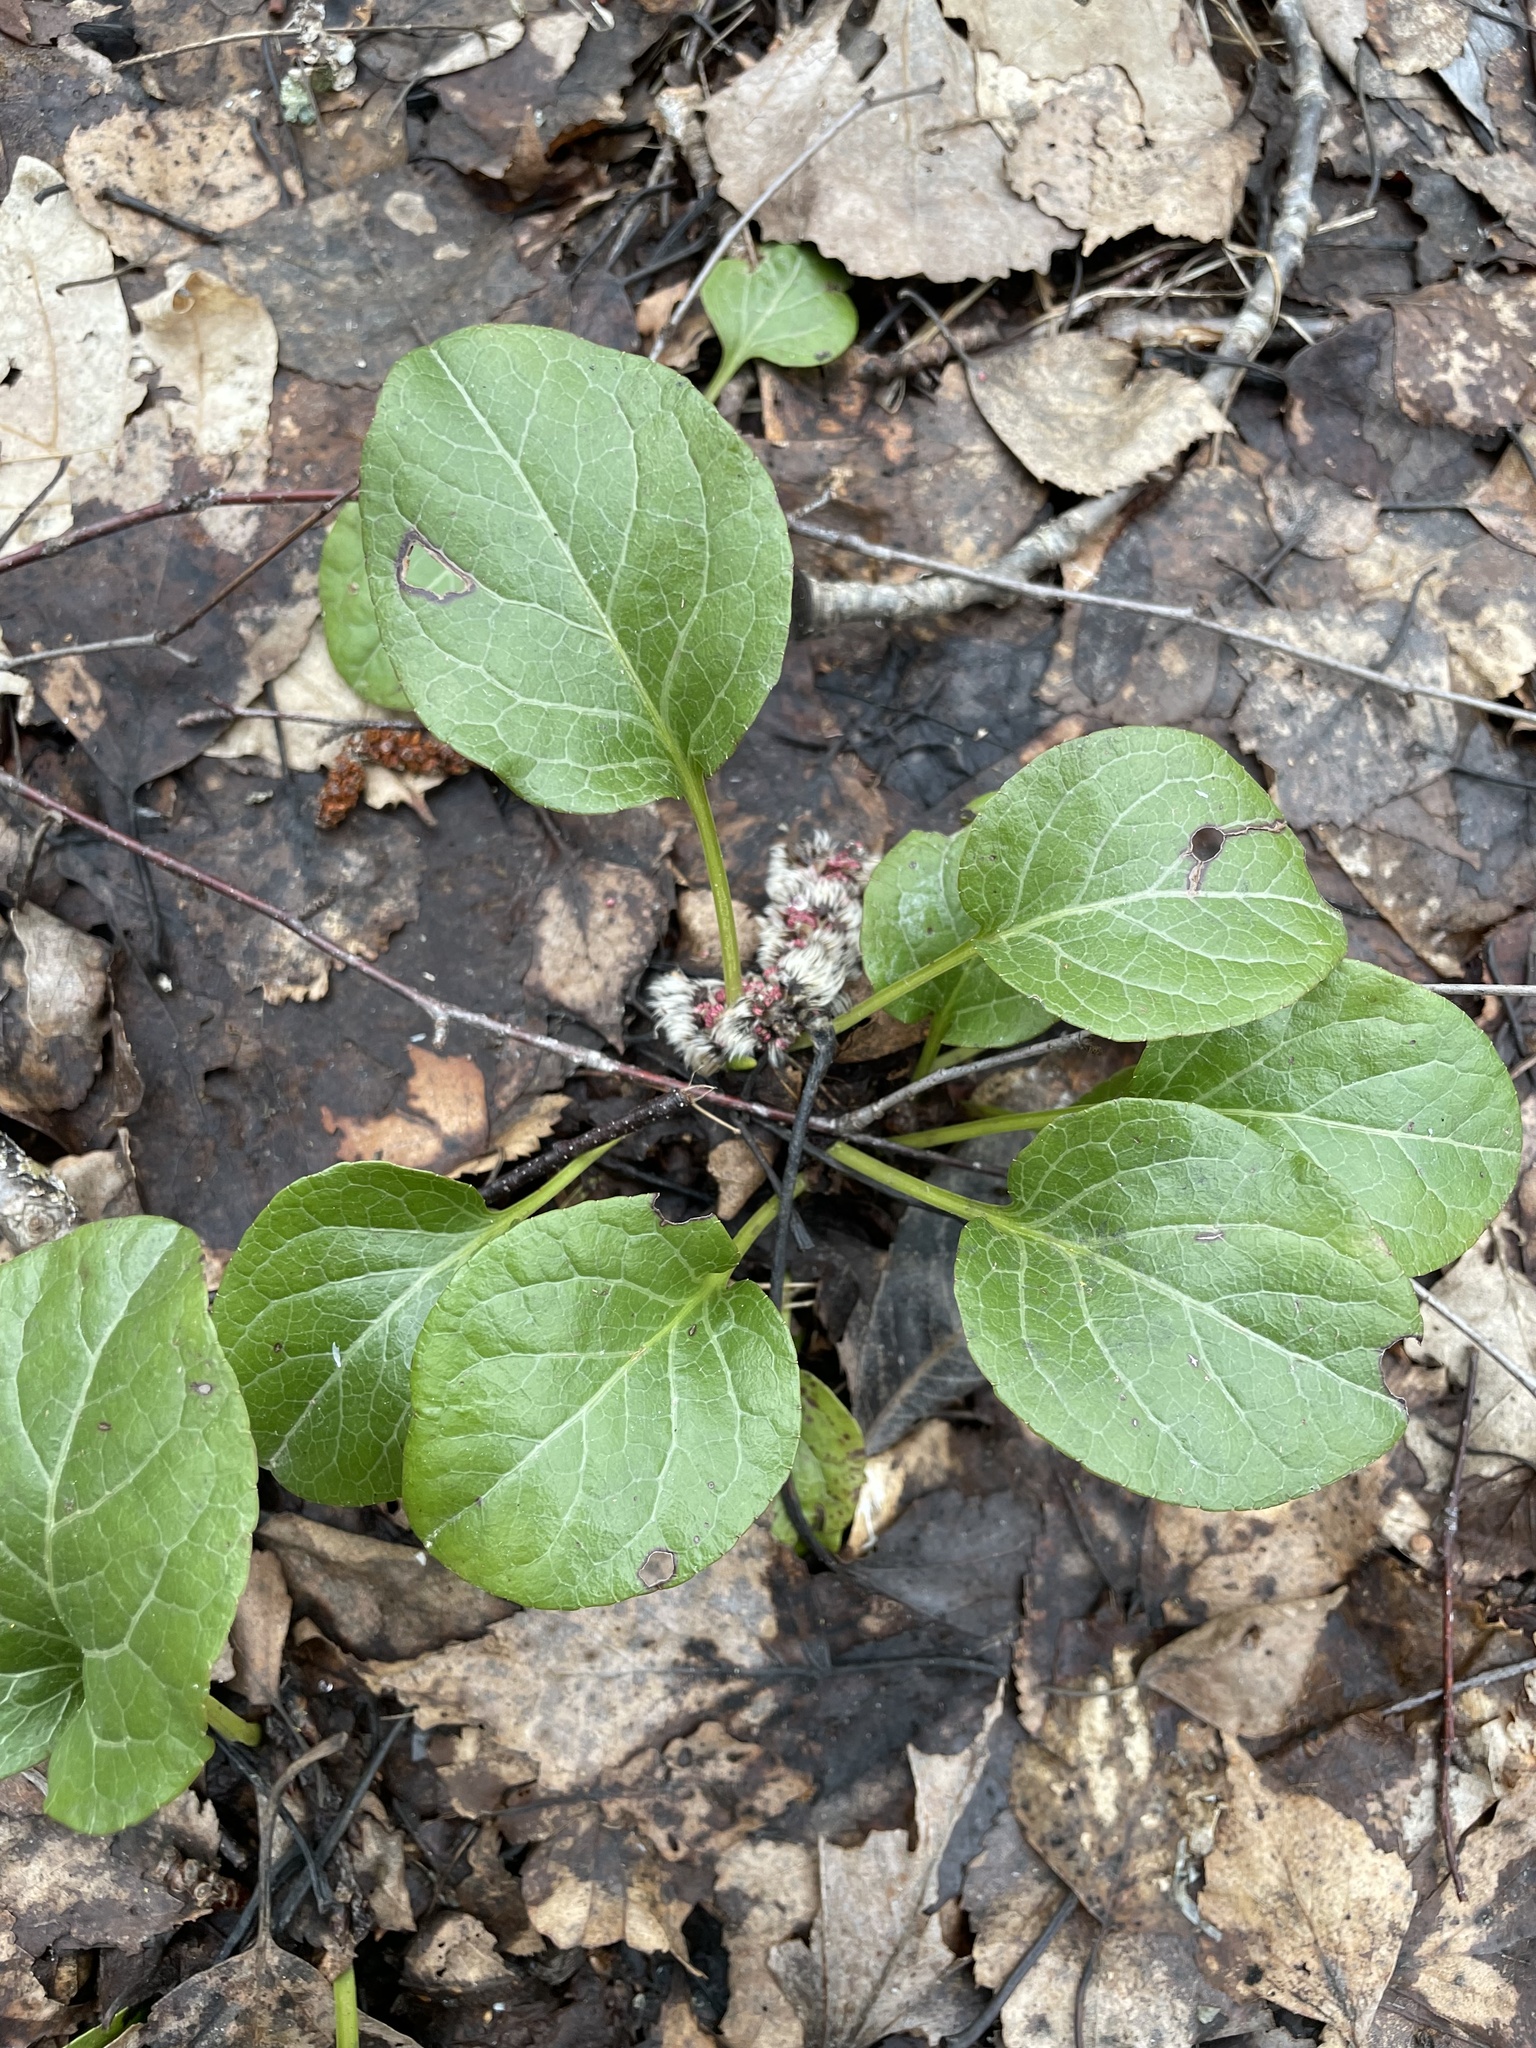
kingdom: Plantae
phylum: Tracheophyta
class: Magnoliopsida
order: Ericales
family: Ericaceae
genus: Pyrola
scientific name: Pyrola rotundifolia
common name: Round-leaved wintergreen
